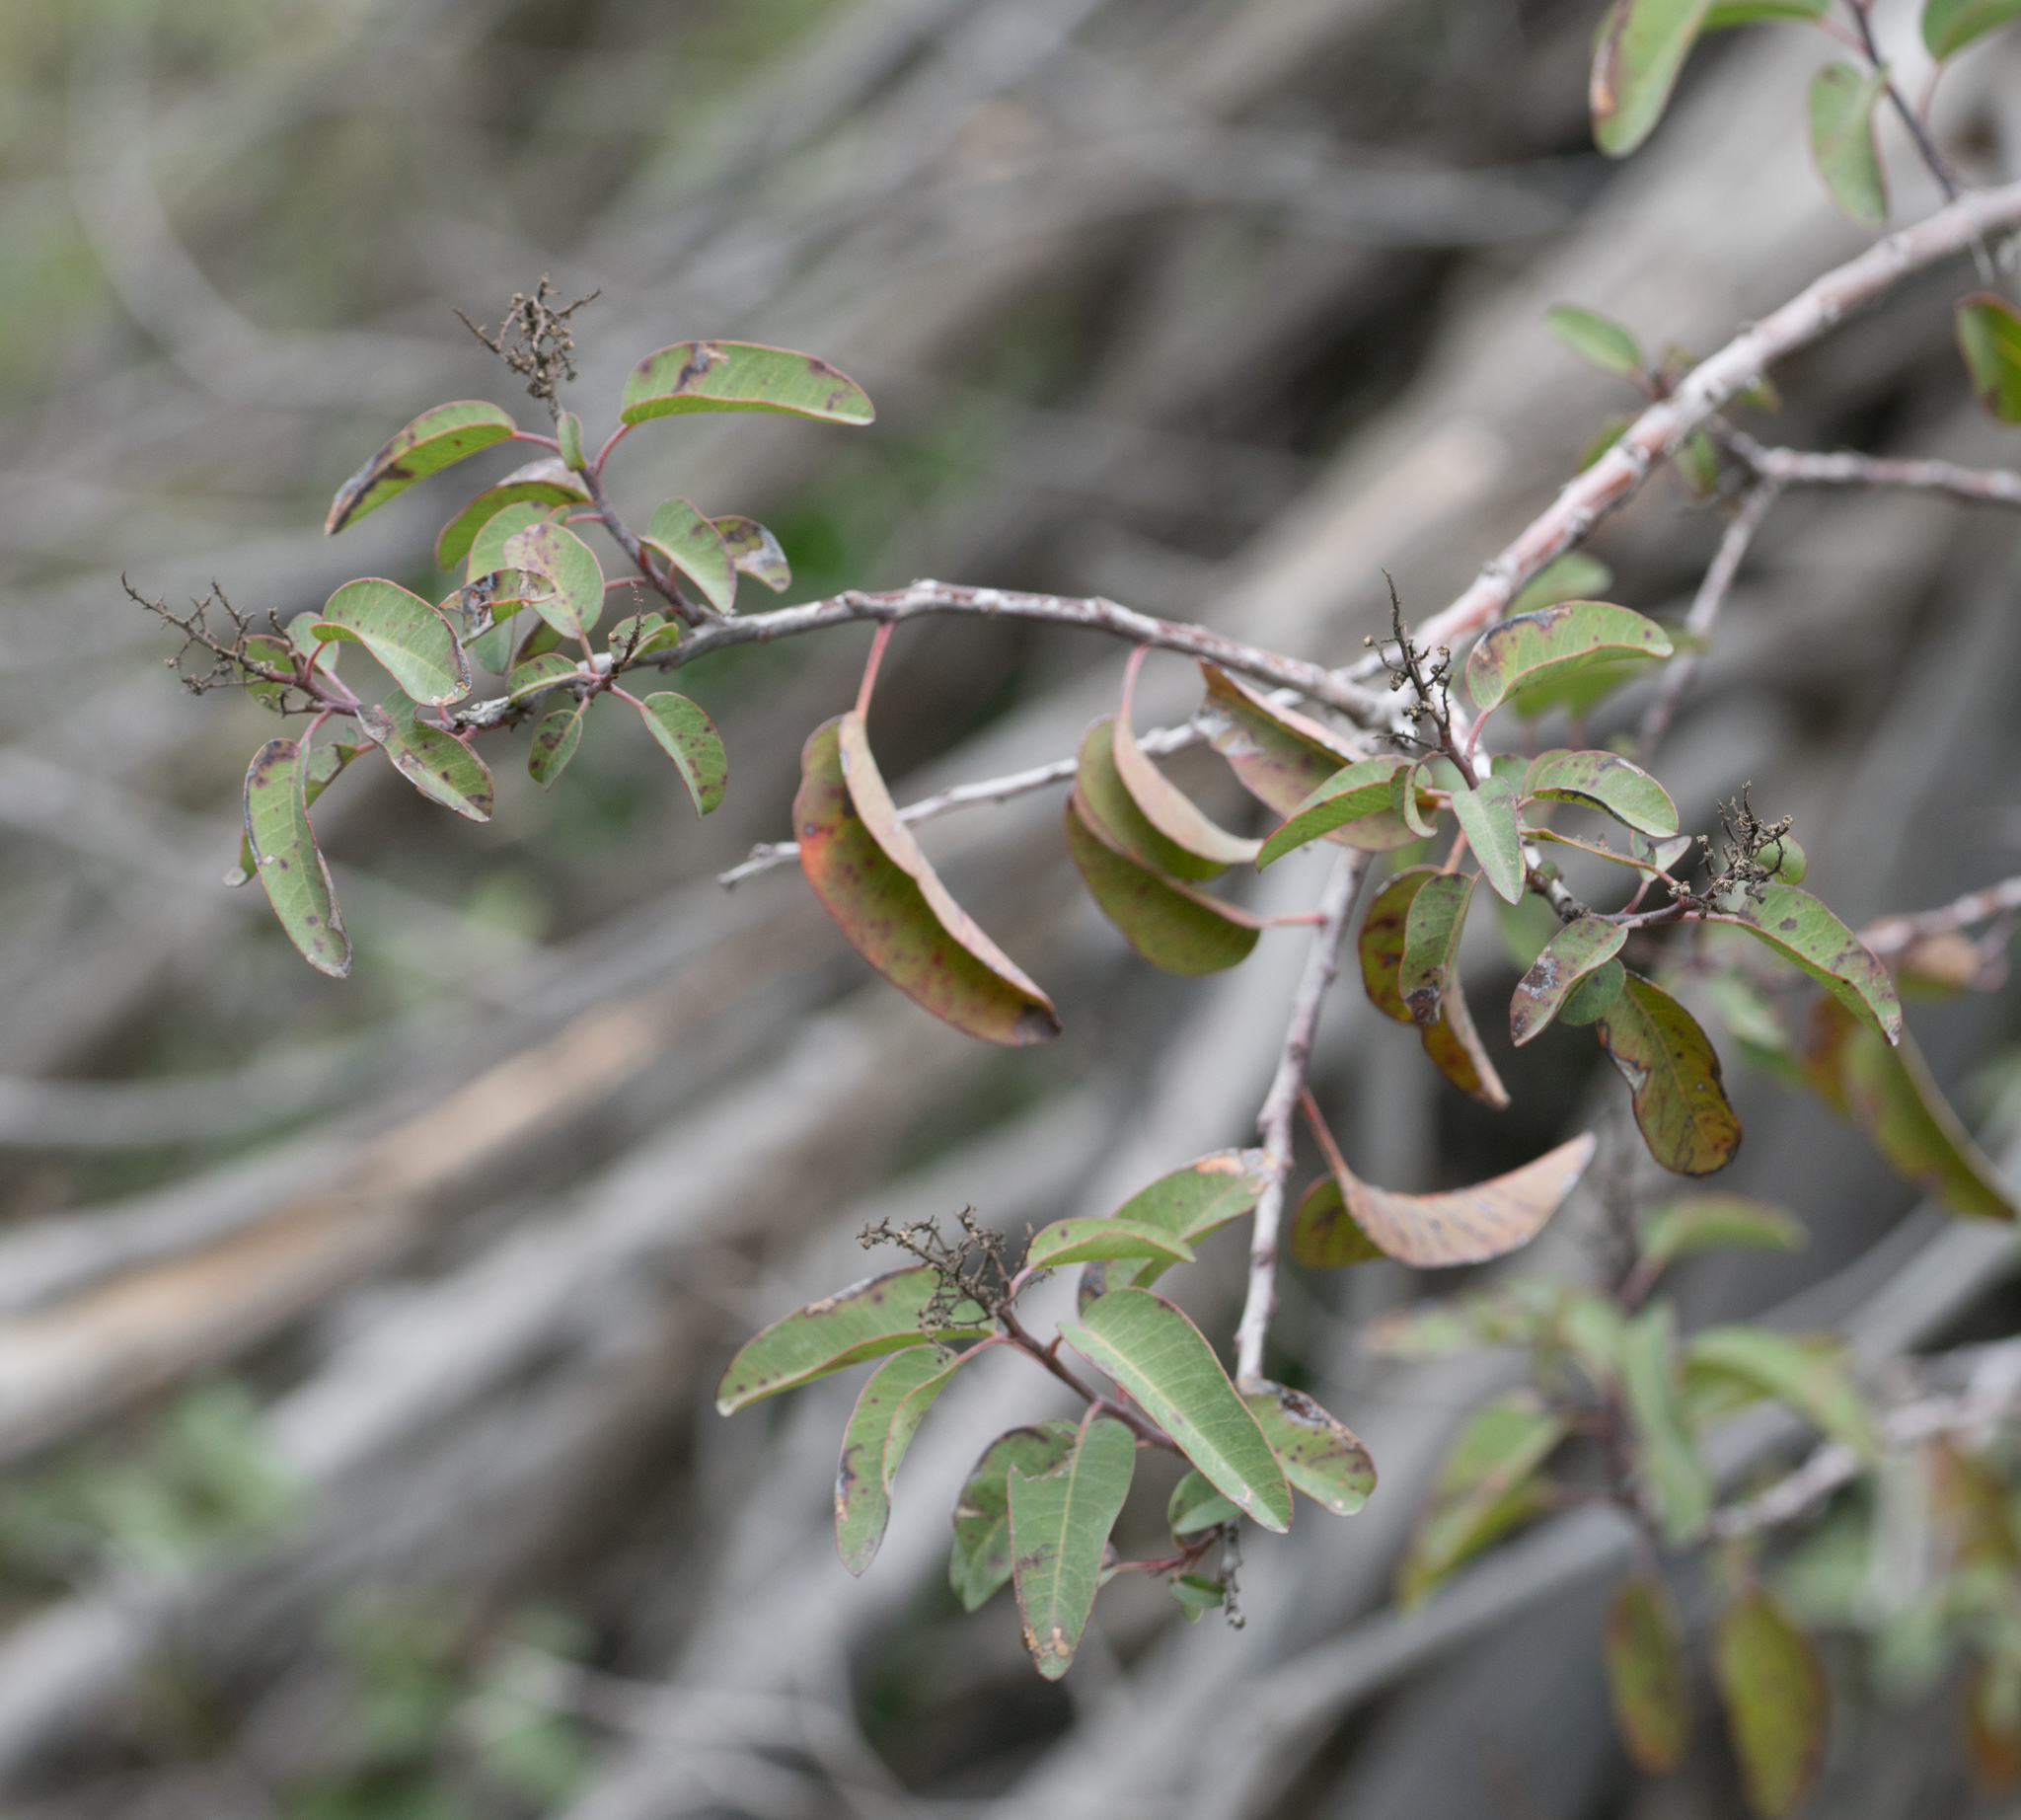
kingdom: Plantae
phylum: Tracheophyta
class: Magnoliopsida
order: Sapindales
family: Anacardiaceae
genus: Malosma
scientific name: Malosma laurina
